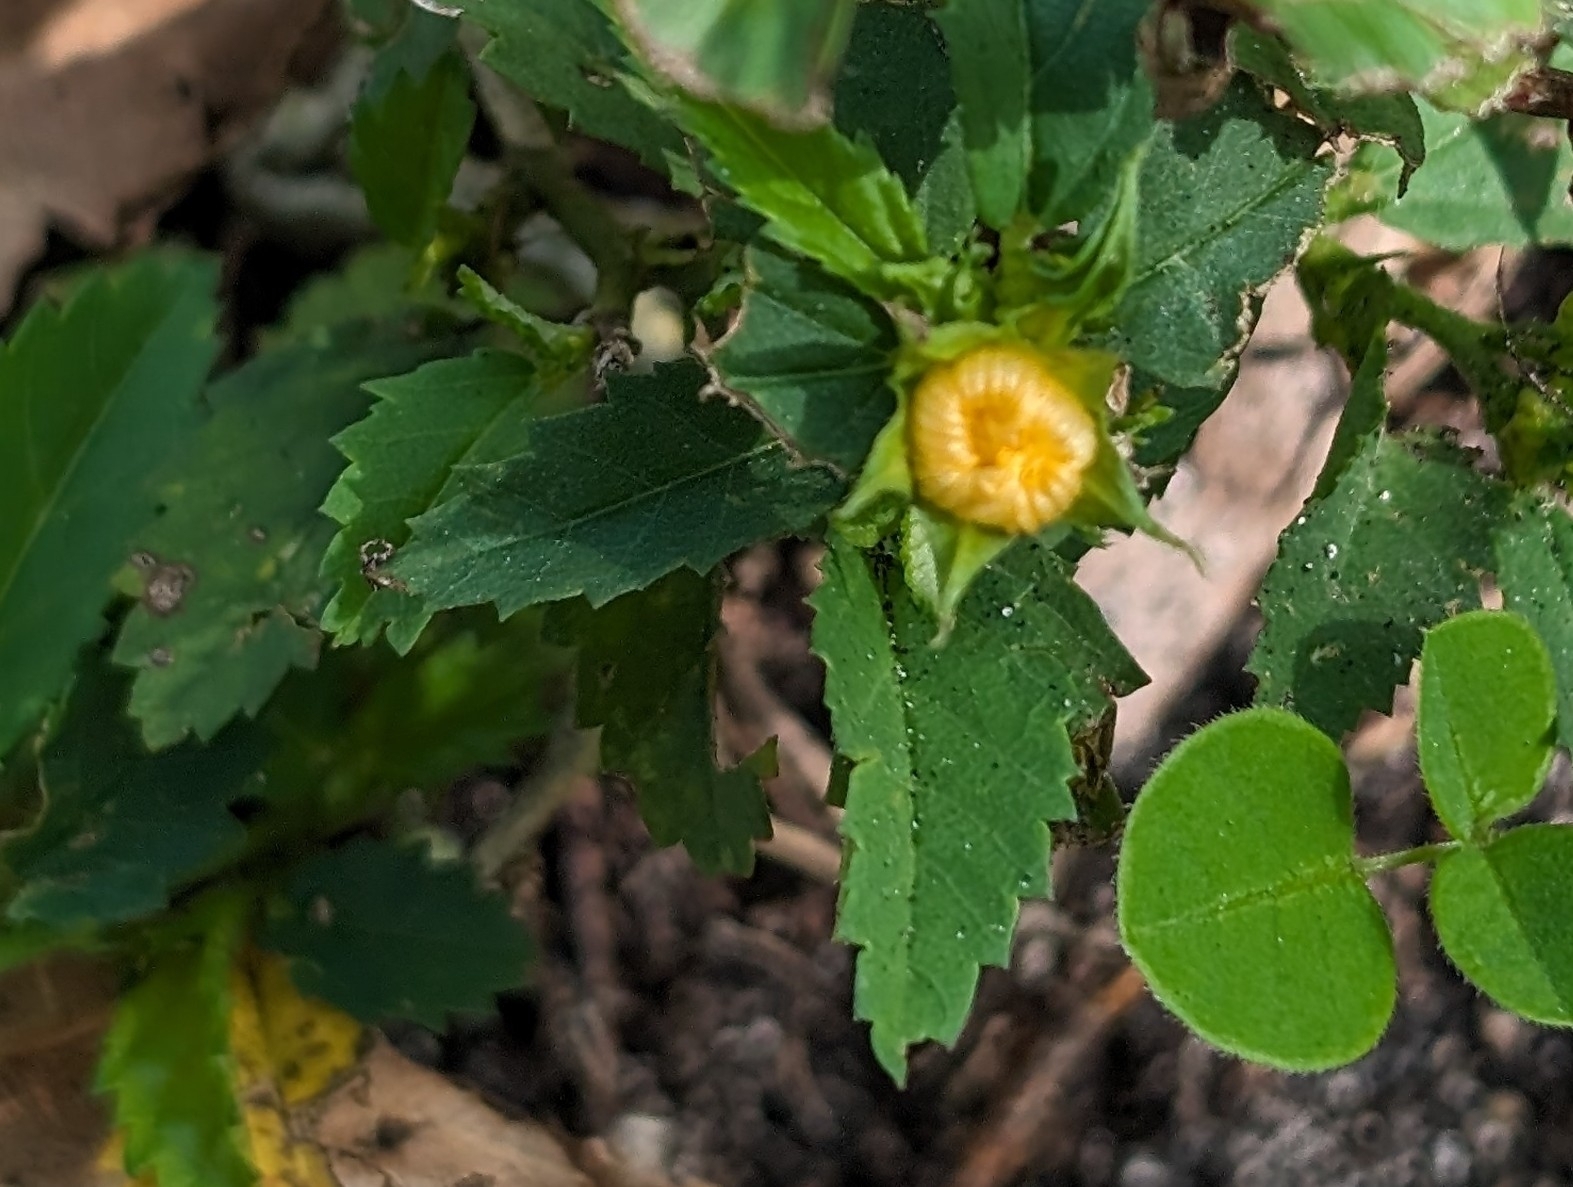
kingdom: Plantae
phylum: Tracheophyta
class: Magnoliopsida
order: Malvales
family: Malvaceae
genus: Sida
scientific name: Sida ulmifolia
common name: Broom weed
